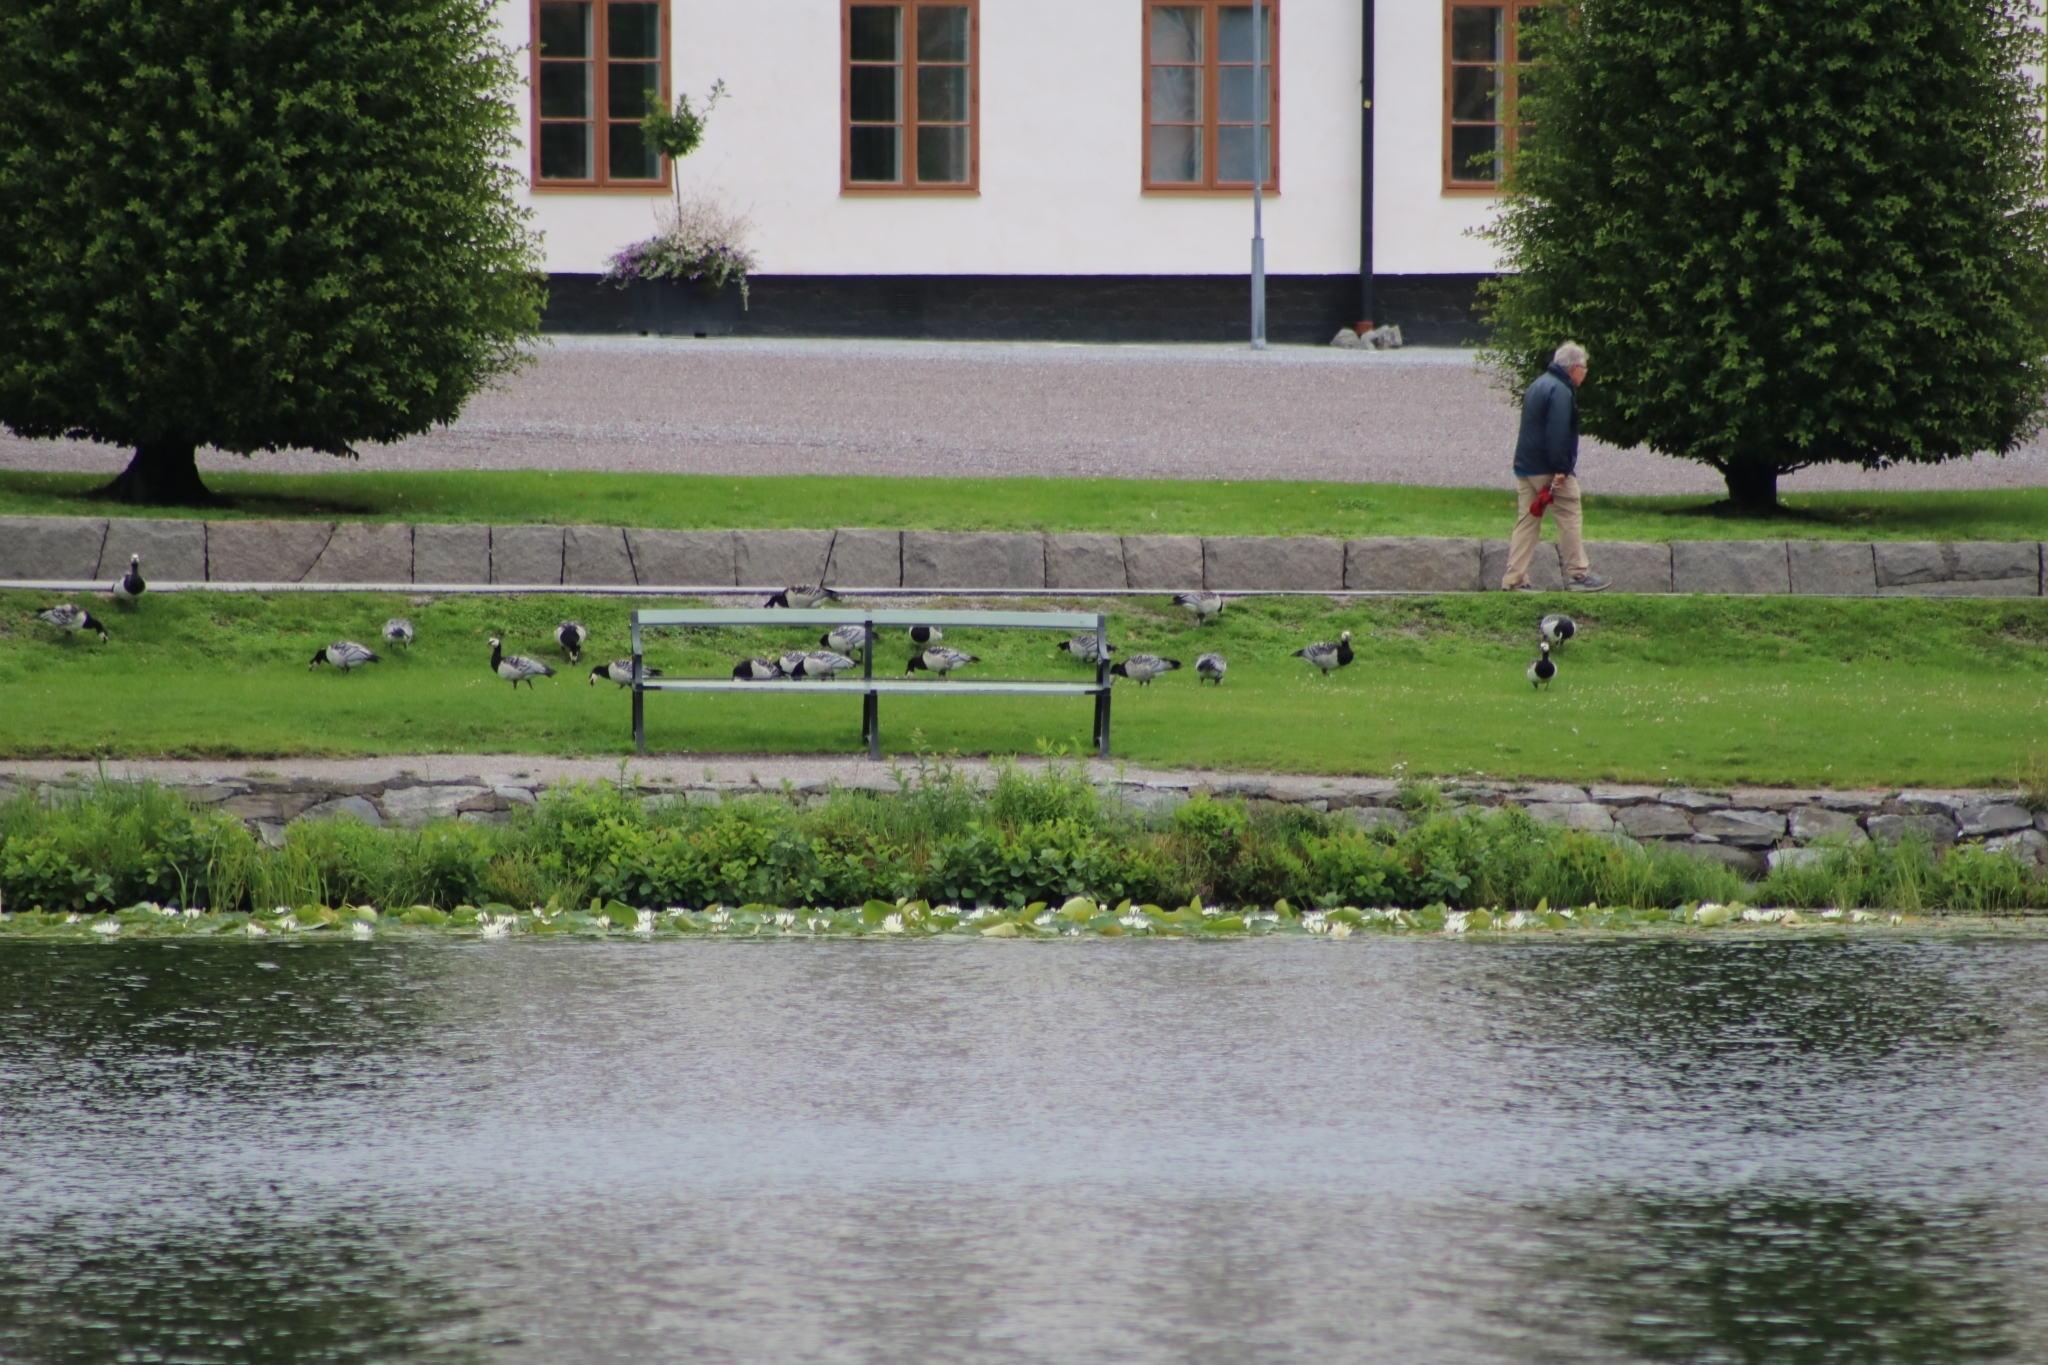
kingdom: Animalia
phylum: Chordata
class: Aves
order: Anseriformes
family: Anatidae
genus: Branta
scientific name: Branta leucopsis
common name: Barnacle goose
